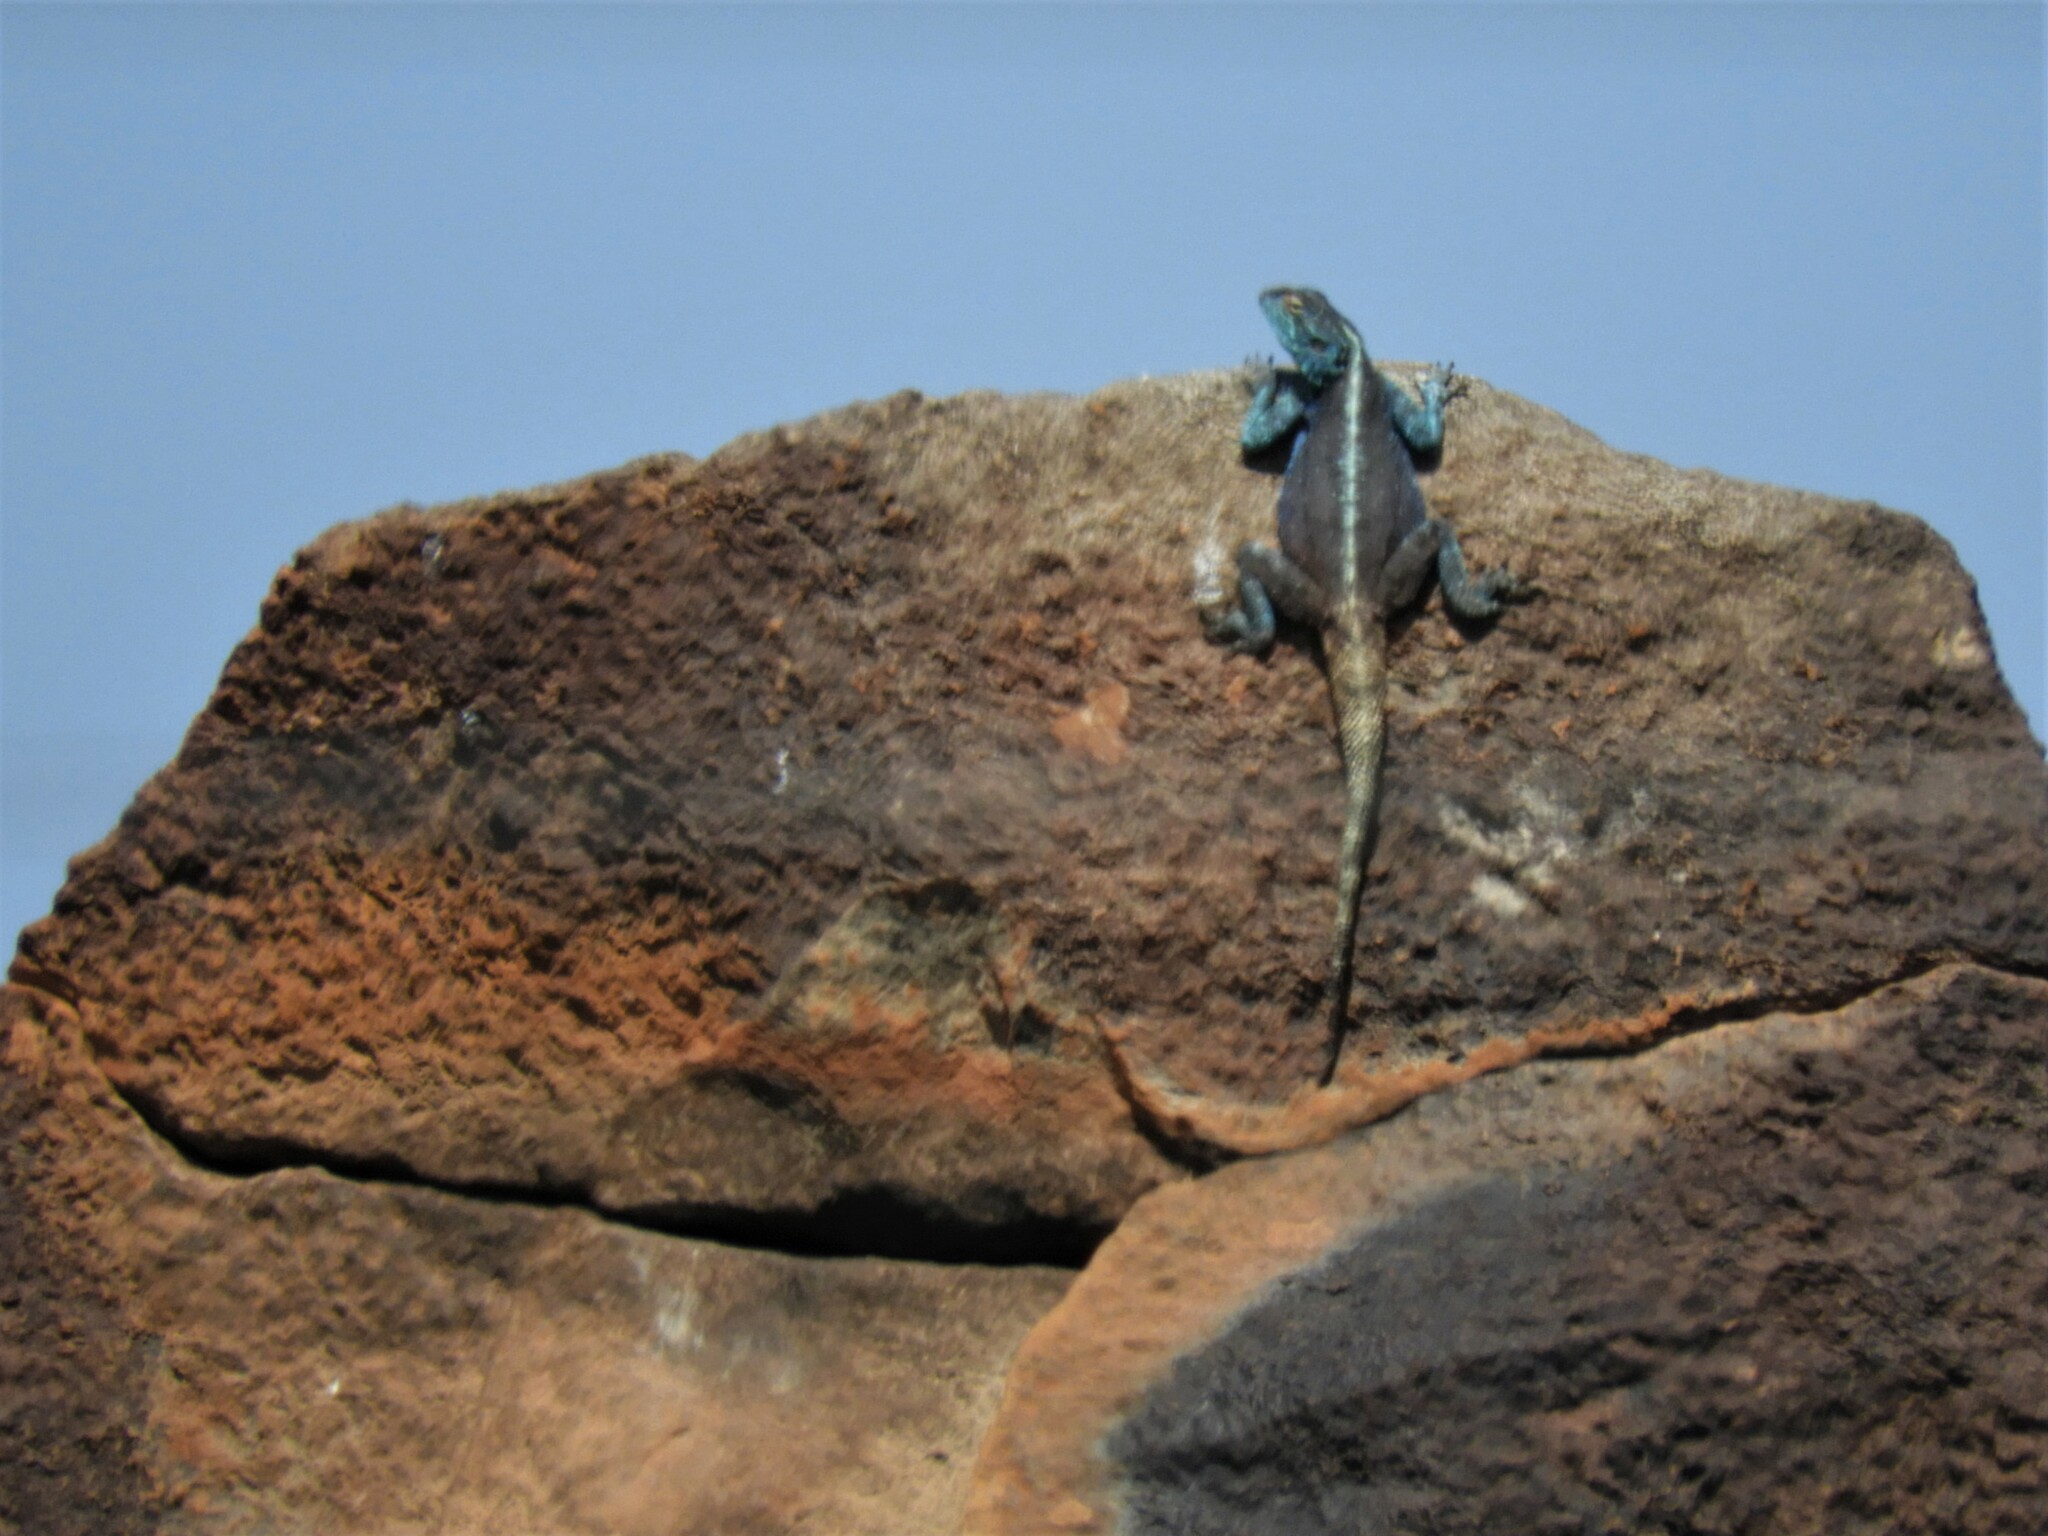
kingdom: Animalia
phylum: Chordata
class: Squamata
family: Agamidae
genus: Agama
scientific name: Agama atra
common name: Southern african rock agama
